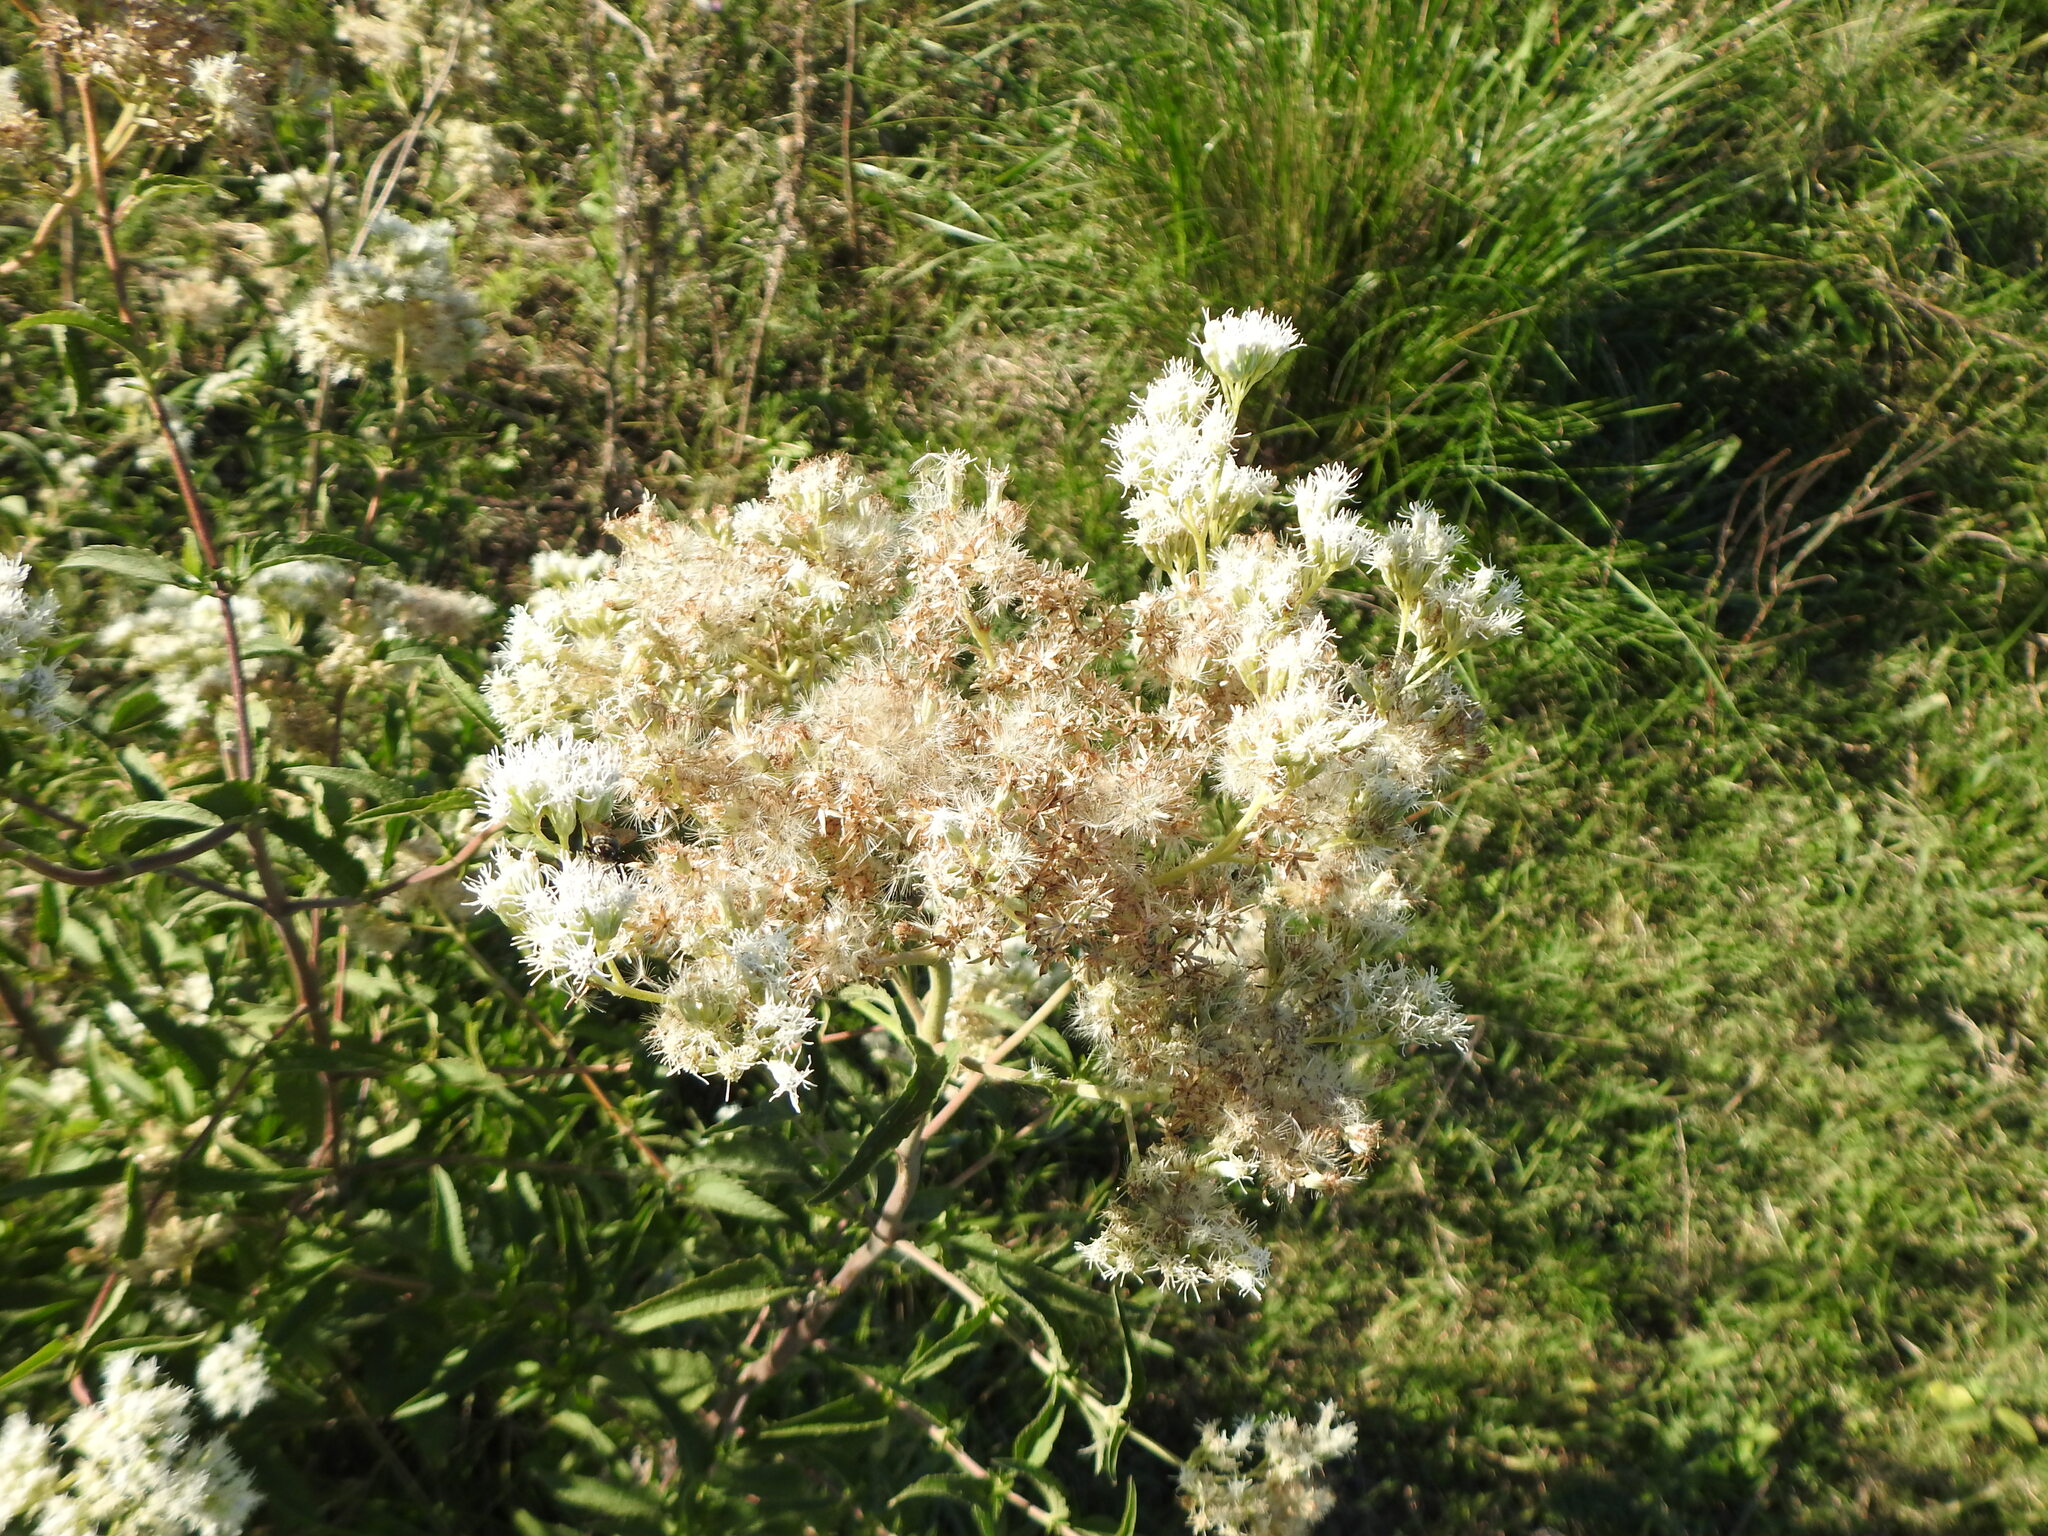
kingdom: Plantae
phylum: Tracheophyta
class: Magnoliopsida
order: Asterales
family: Asteraceae
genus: Austroeupatorium
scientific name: Austroeupatorium inulifolium
